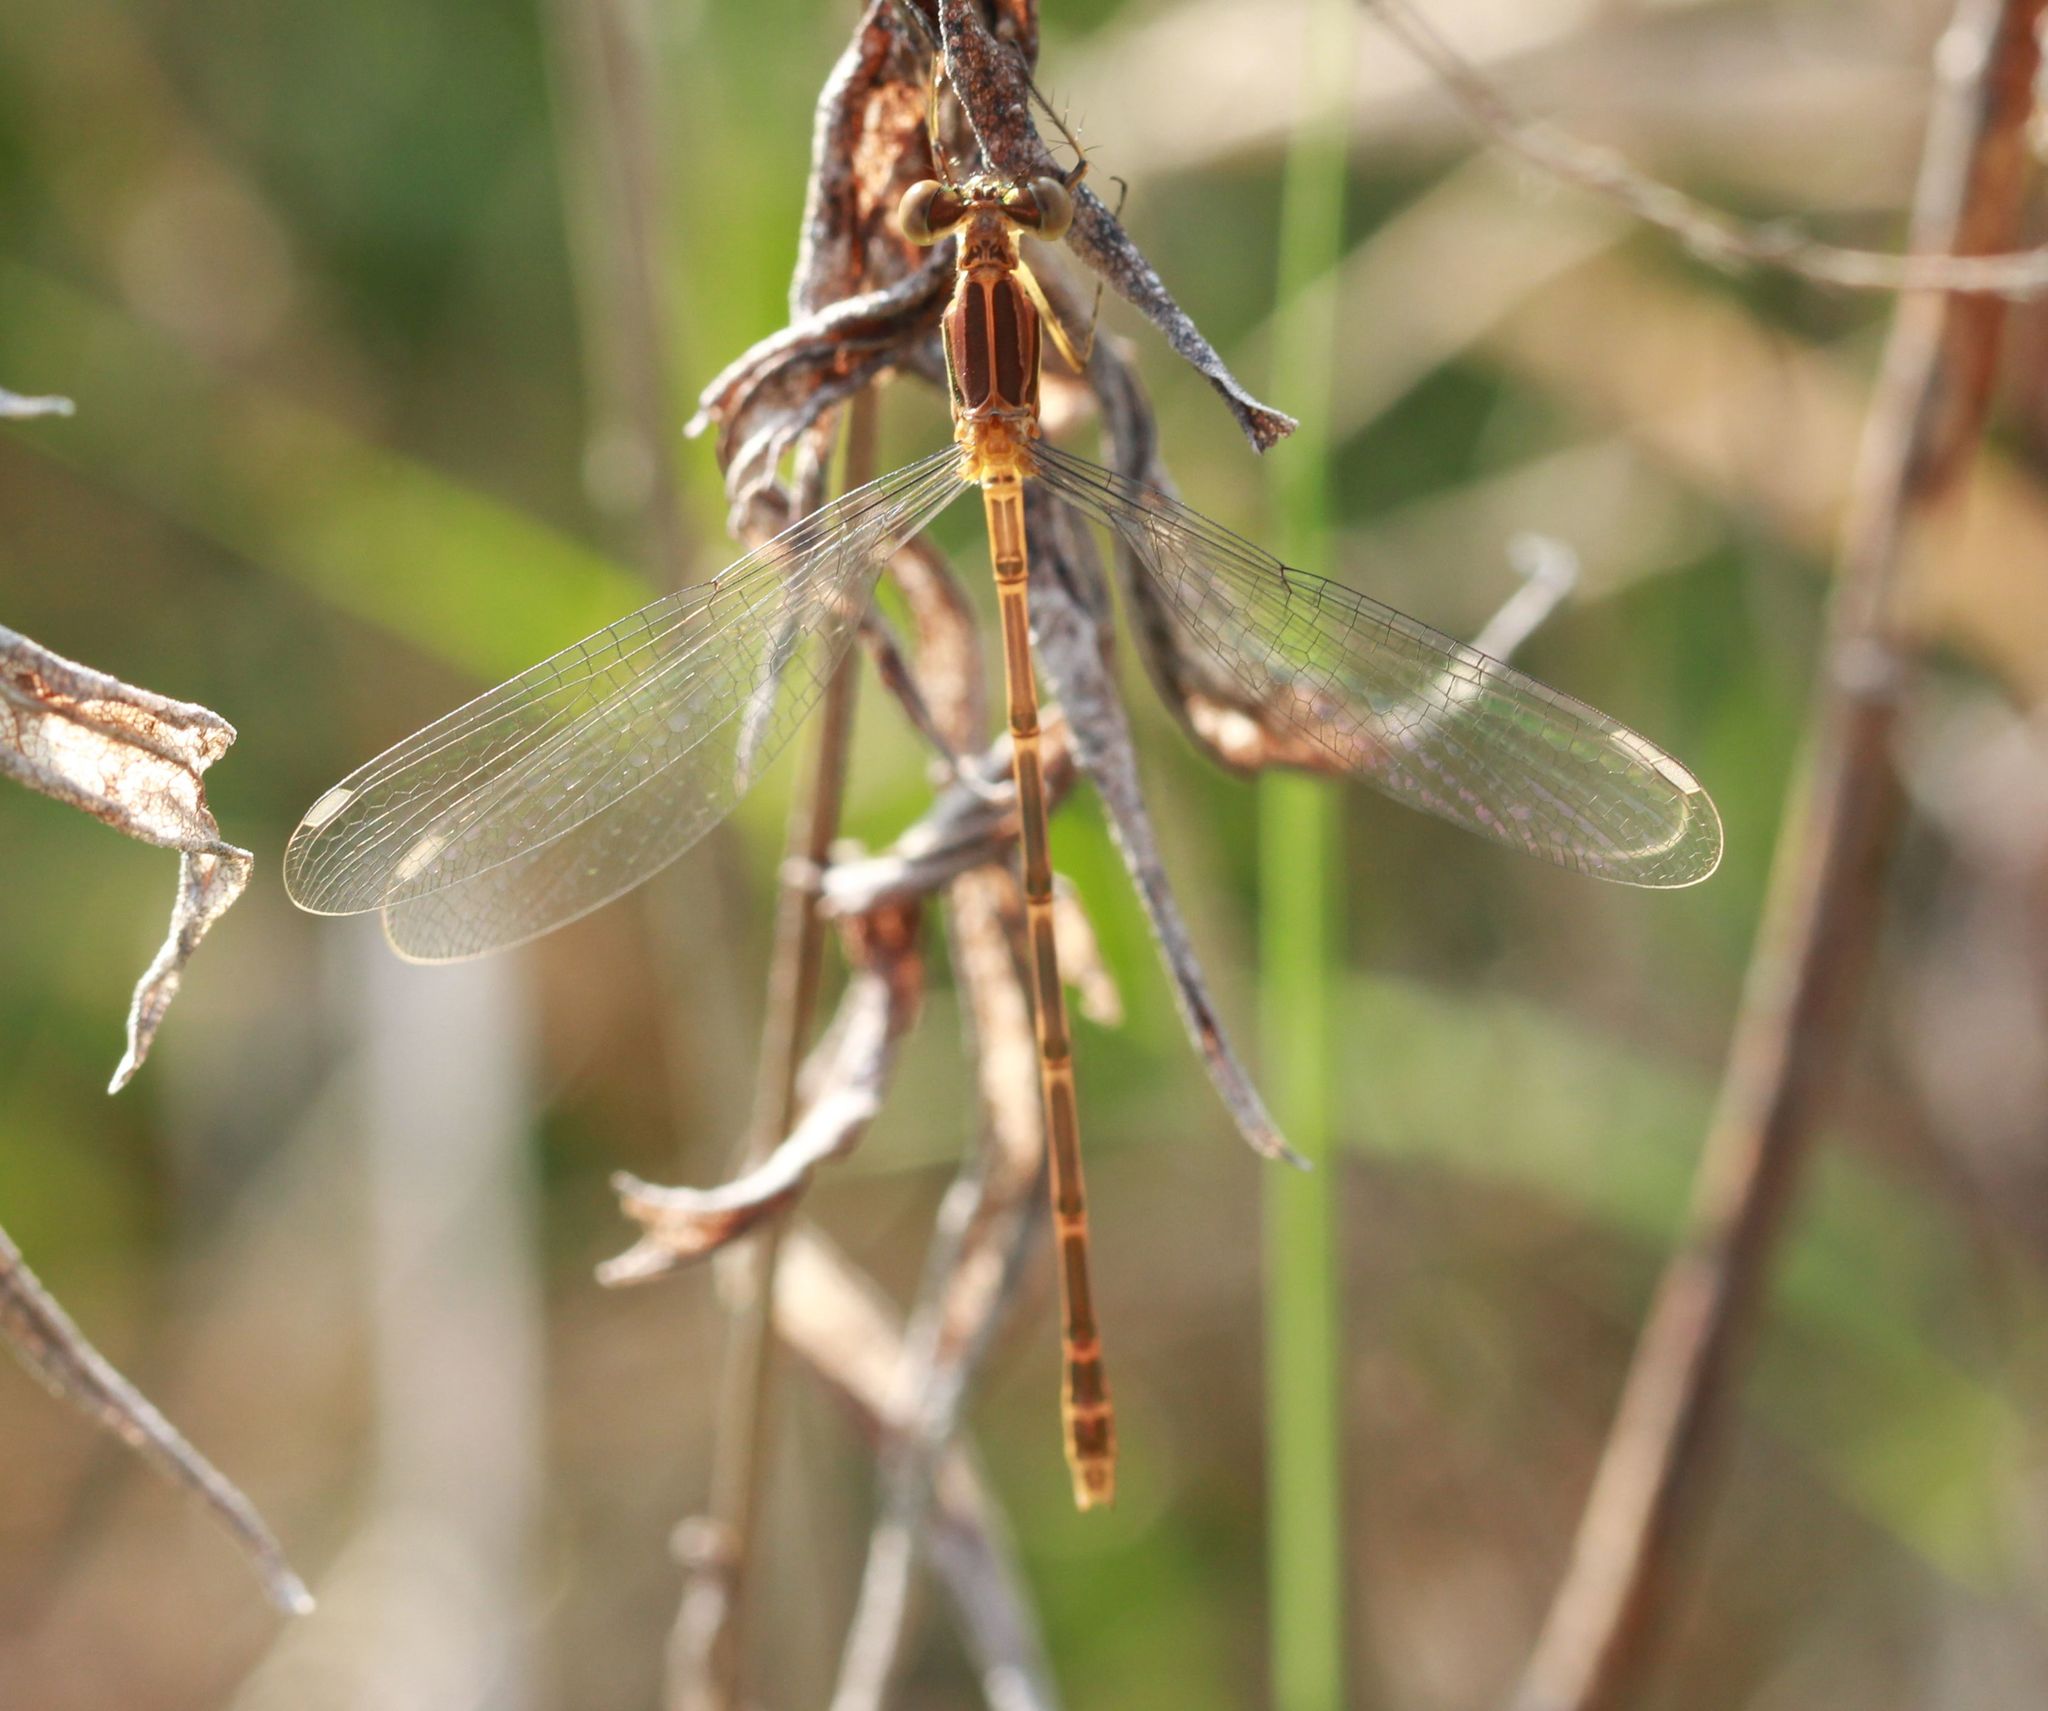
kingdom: Animalia
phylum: Arthropoda
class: Insecta
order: Odonata
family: Lestidae
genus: Lestes
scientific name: Lestes rectangularis
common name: Slender spreadwing
